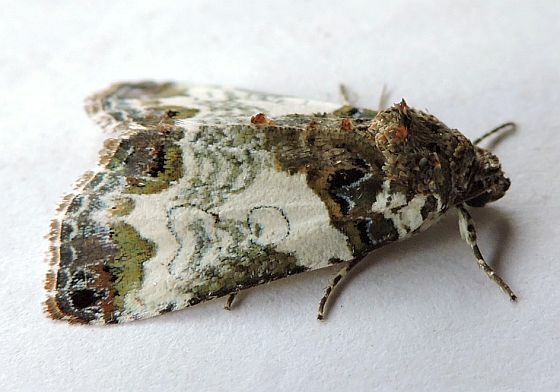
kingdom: Animalia
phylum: Arthropoda
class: Insecta
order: Lepidoptera
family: Noctuidae
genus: Cerma
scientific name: Cerma cerintha
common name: Tufted bird-dropping moth
